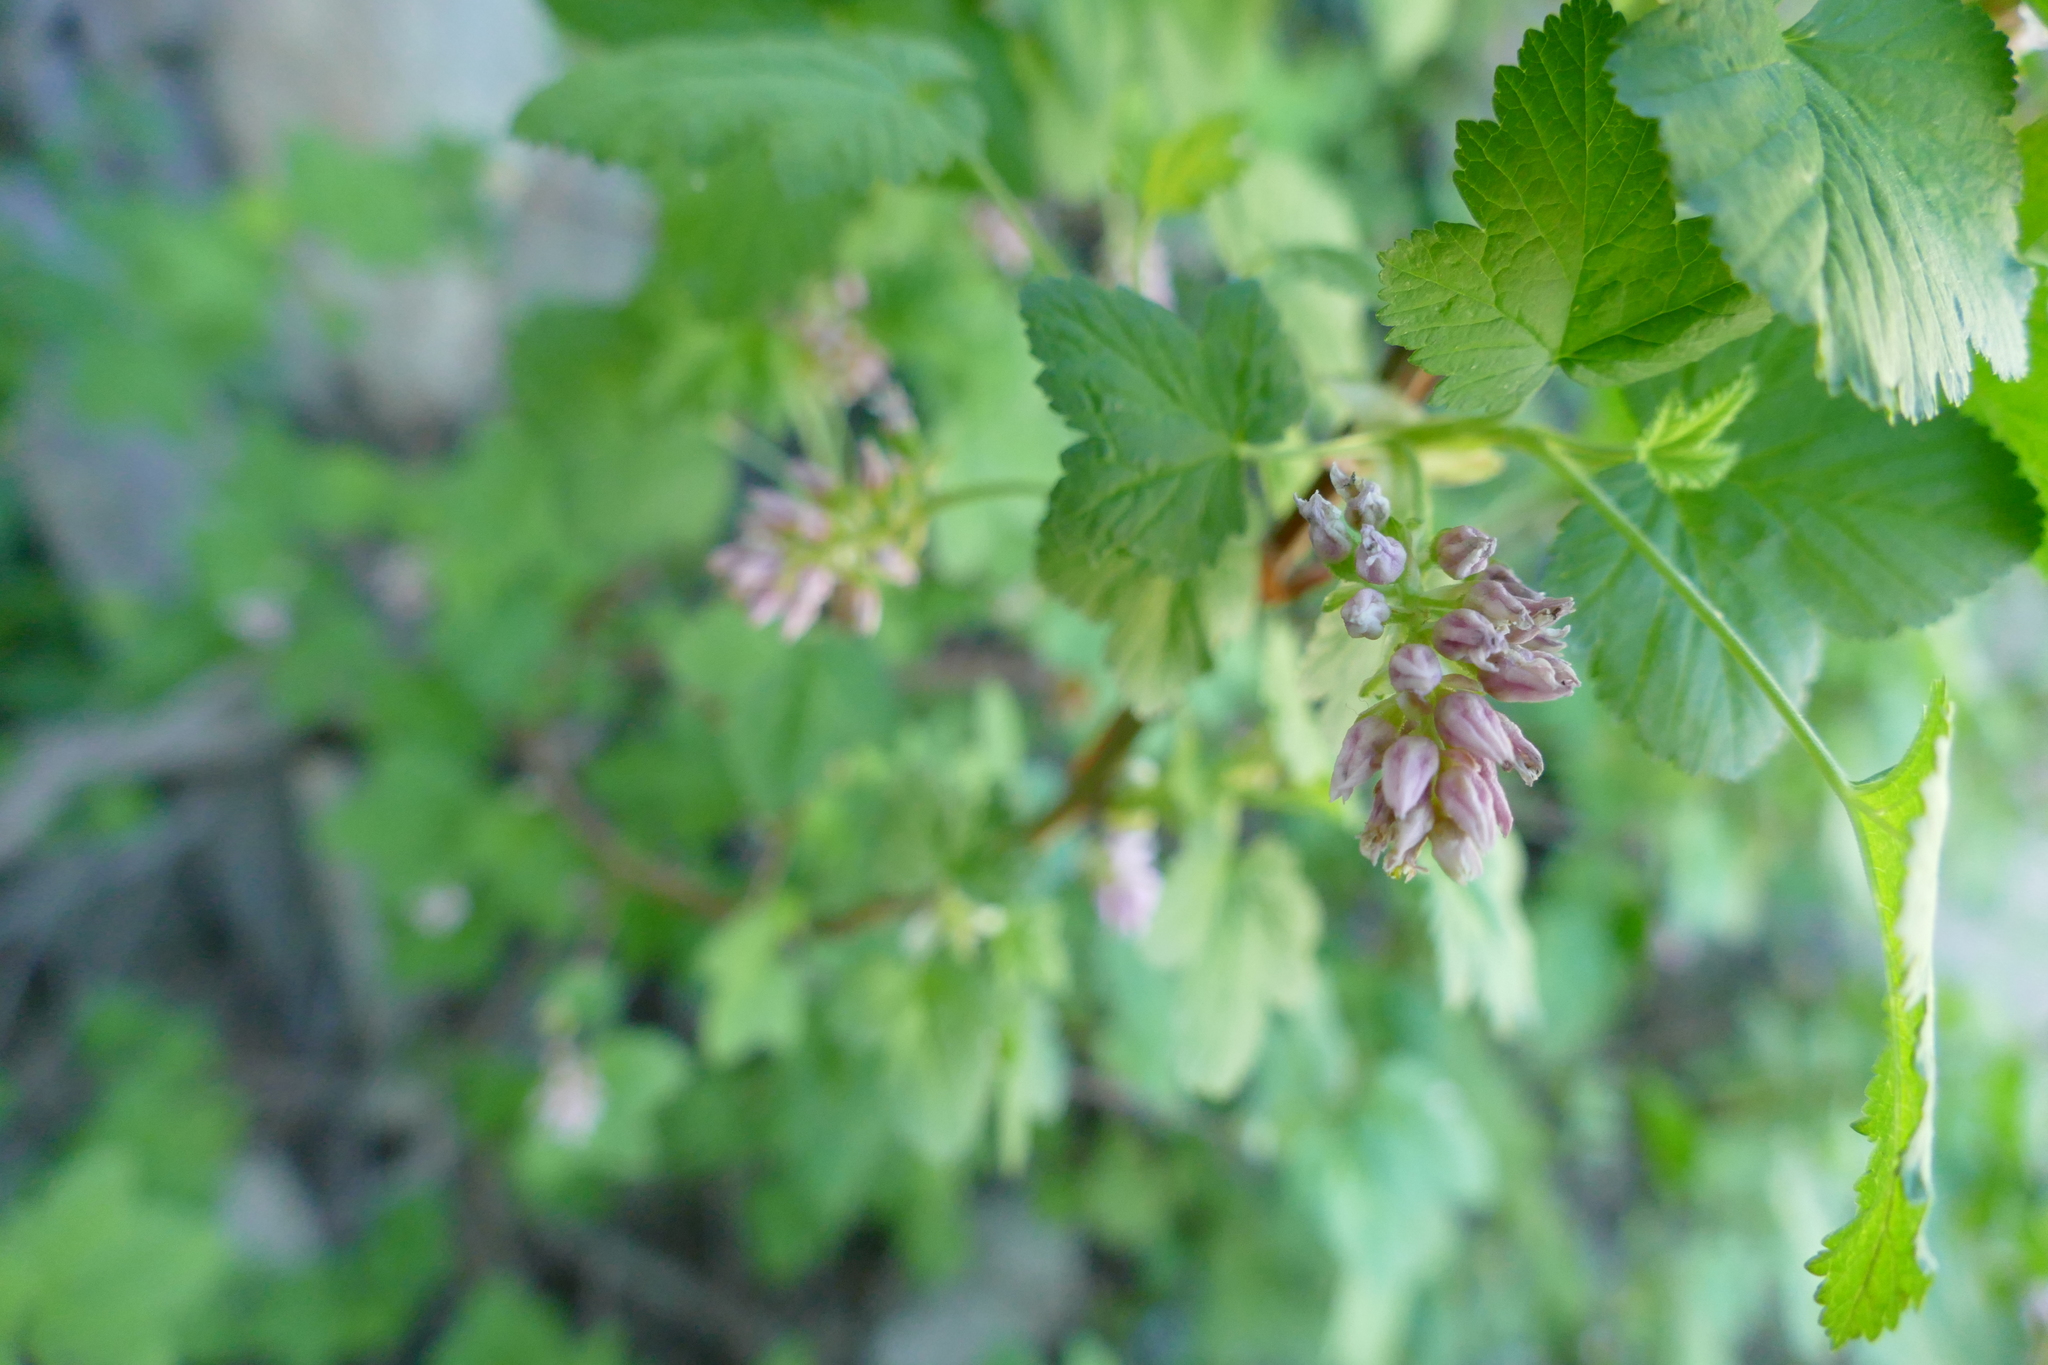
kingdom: Plantae
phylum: Tracheophyta
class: Magnoliopsida
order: Saxifragales
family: Grossulariaceae
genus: Ribes
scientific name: Ribes nevadense
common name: Mountain pink currant
